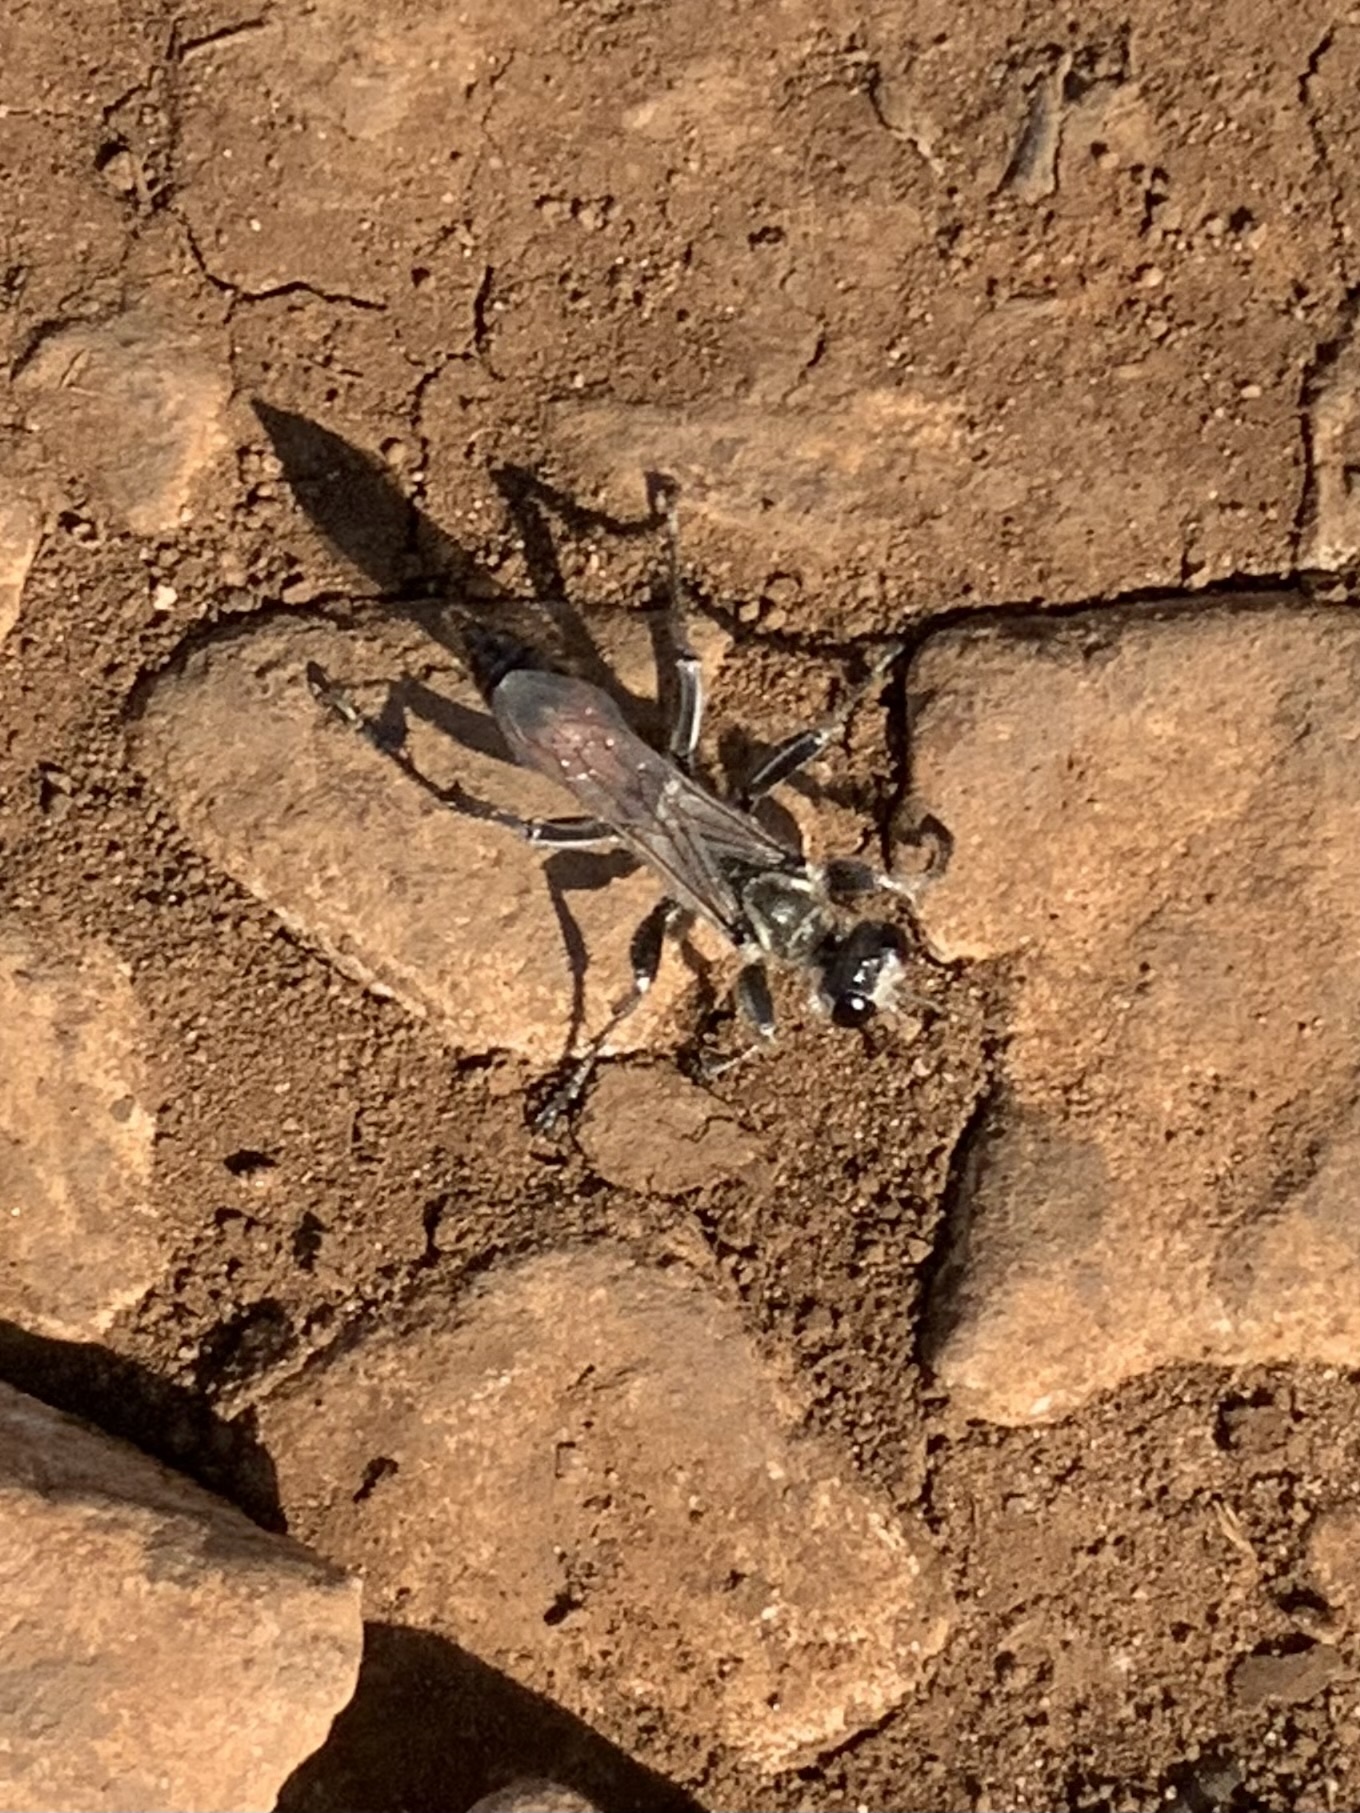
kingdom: Animalia
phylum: Arthropoda
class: Insecta
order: Hymenoptera
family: Sphecidae
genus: Prionyx
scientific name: Prionyx viduatus
